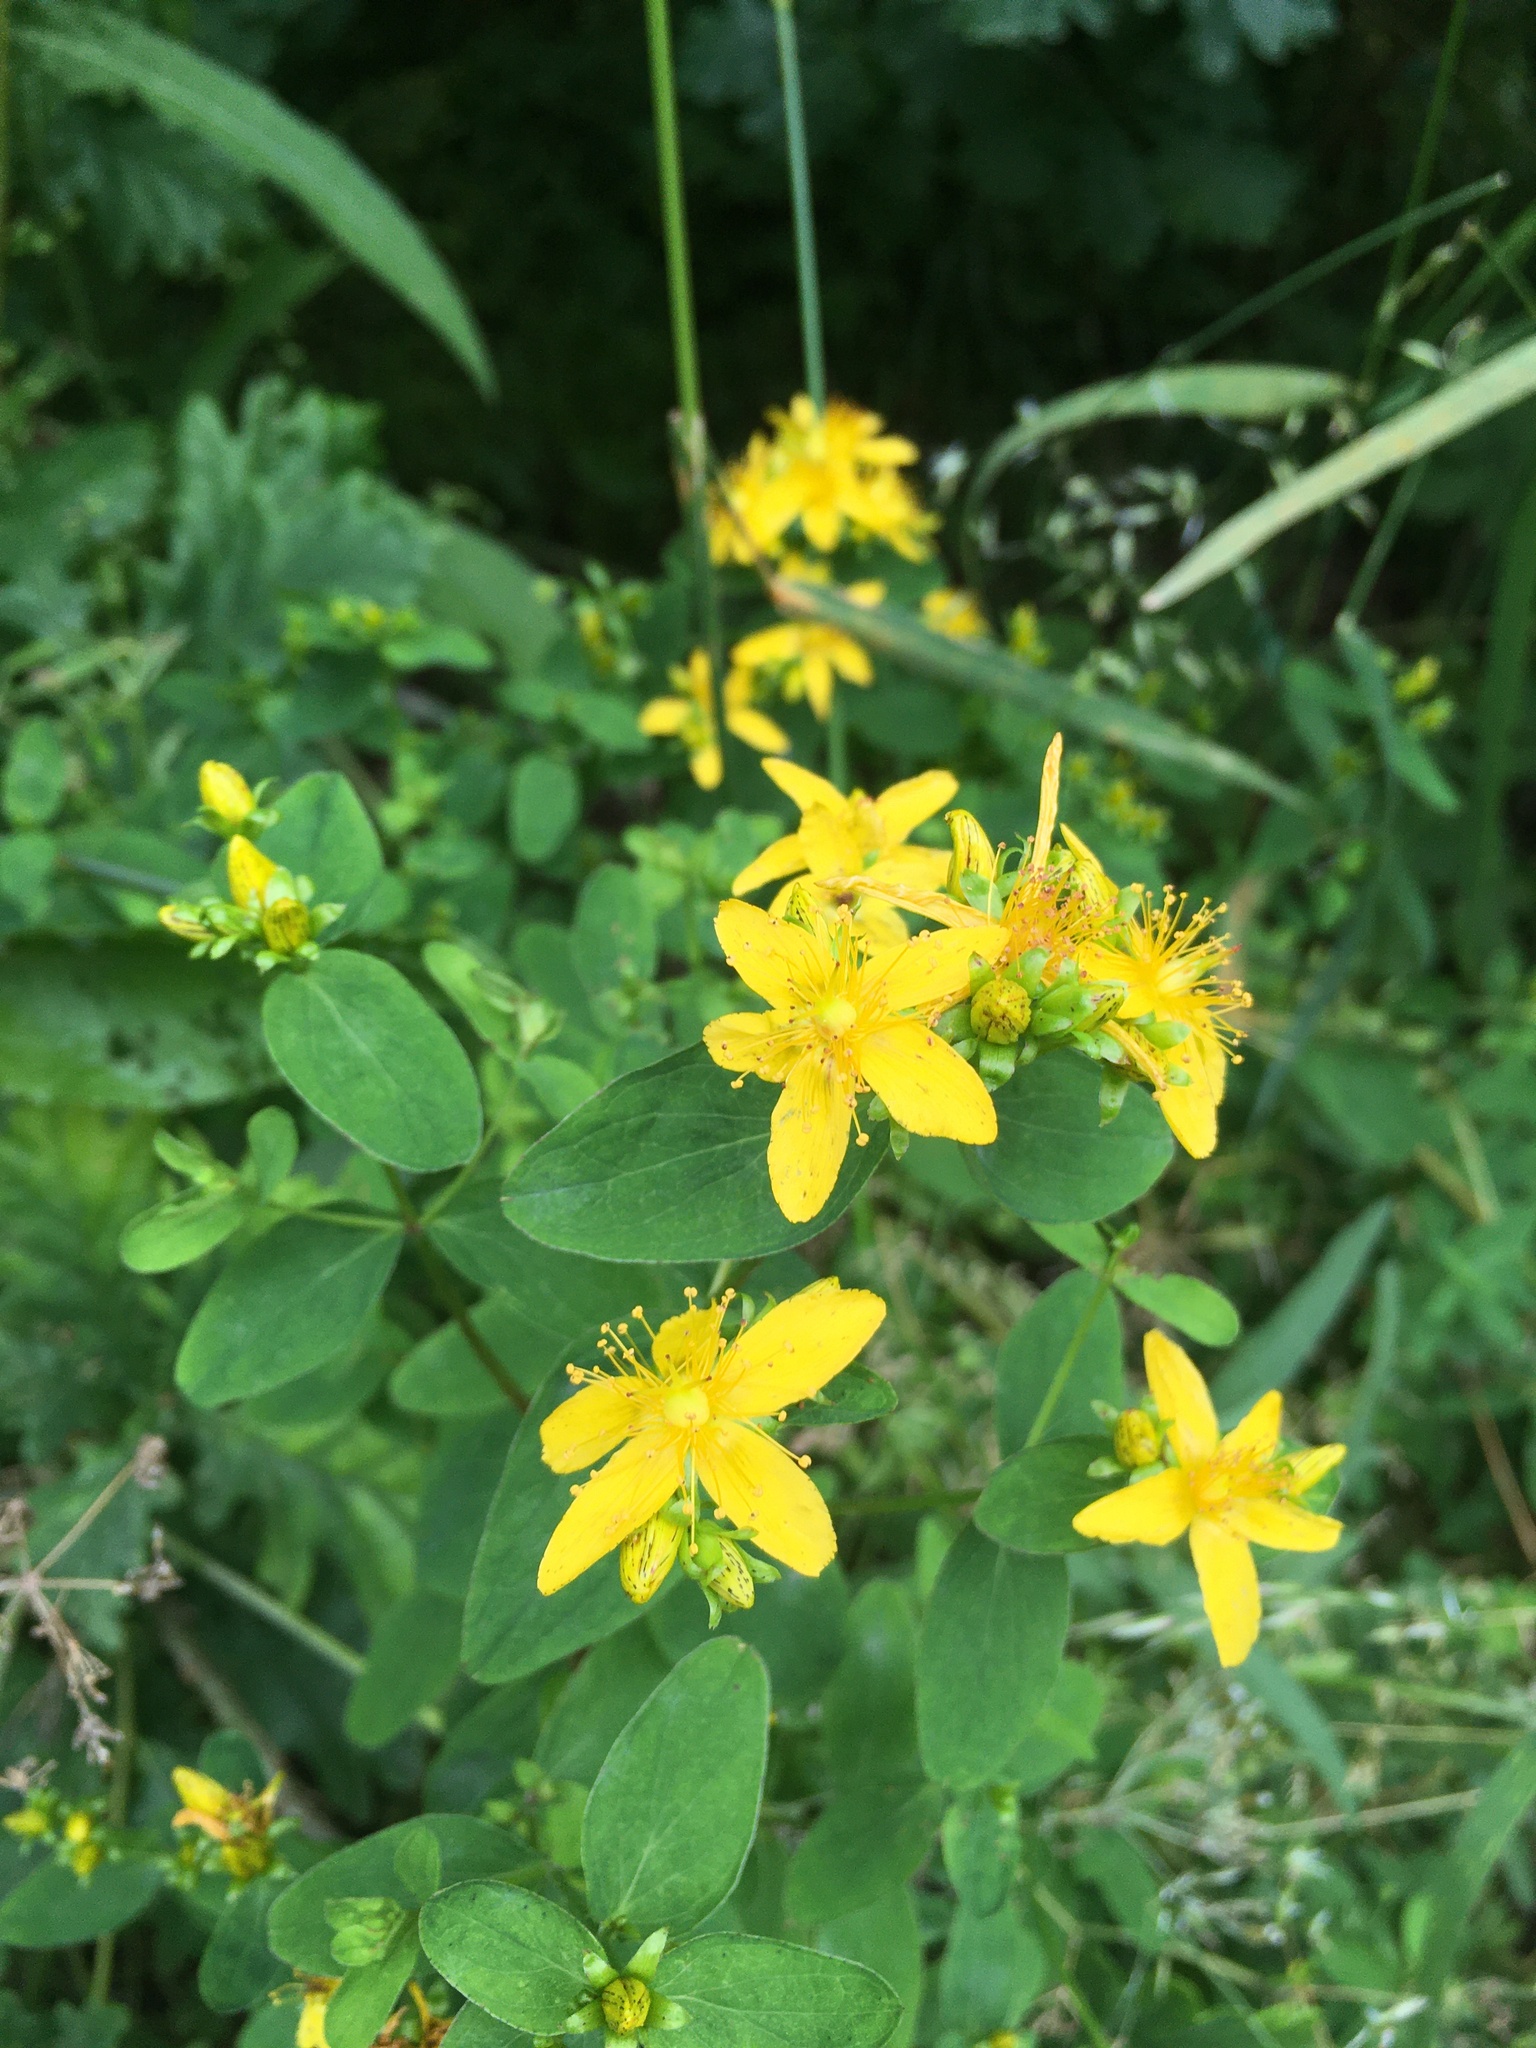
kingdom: Plantae
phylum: Tracheophyta
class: Magnoliopsida
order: Malpighiales
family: Hypericaceae
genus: Hypericum
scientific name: Hypericum dubium
